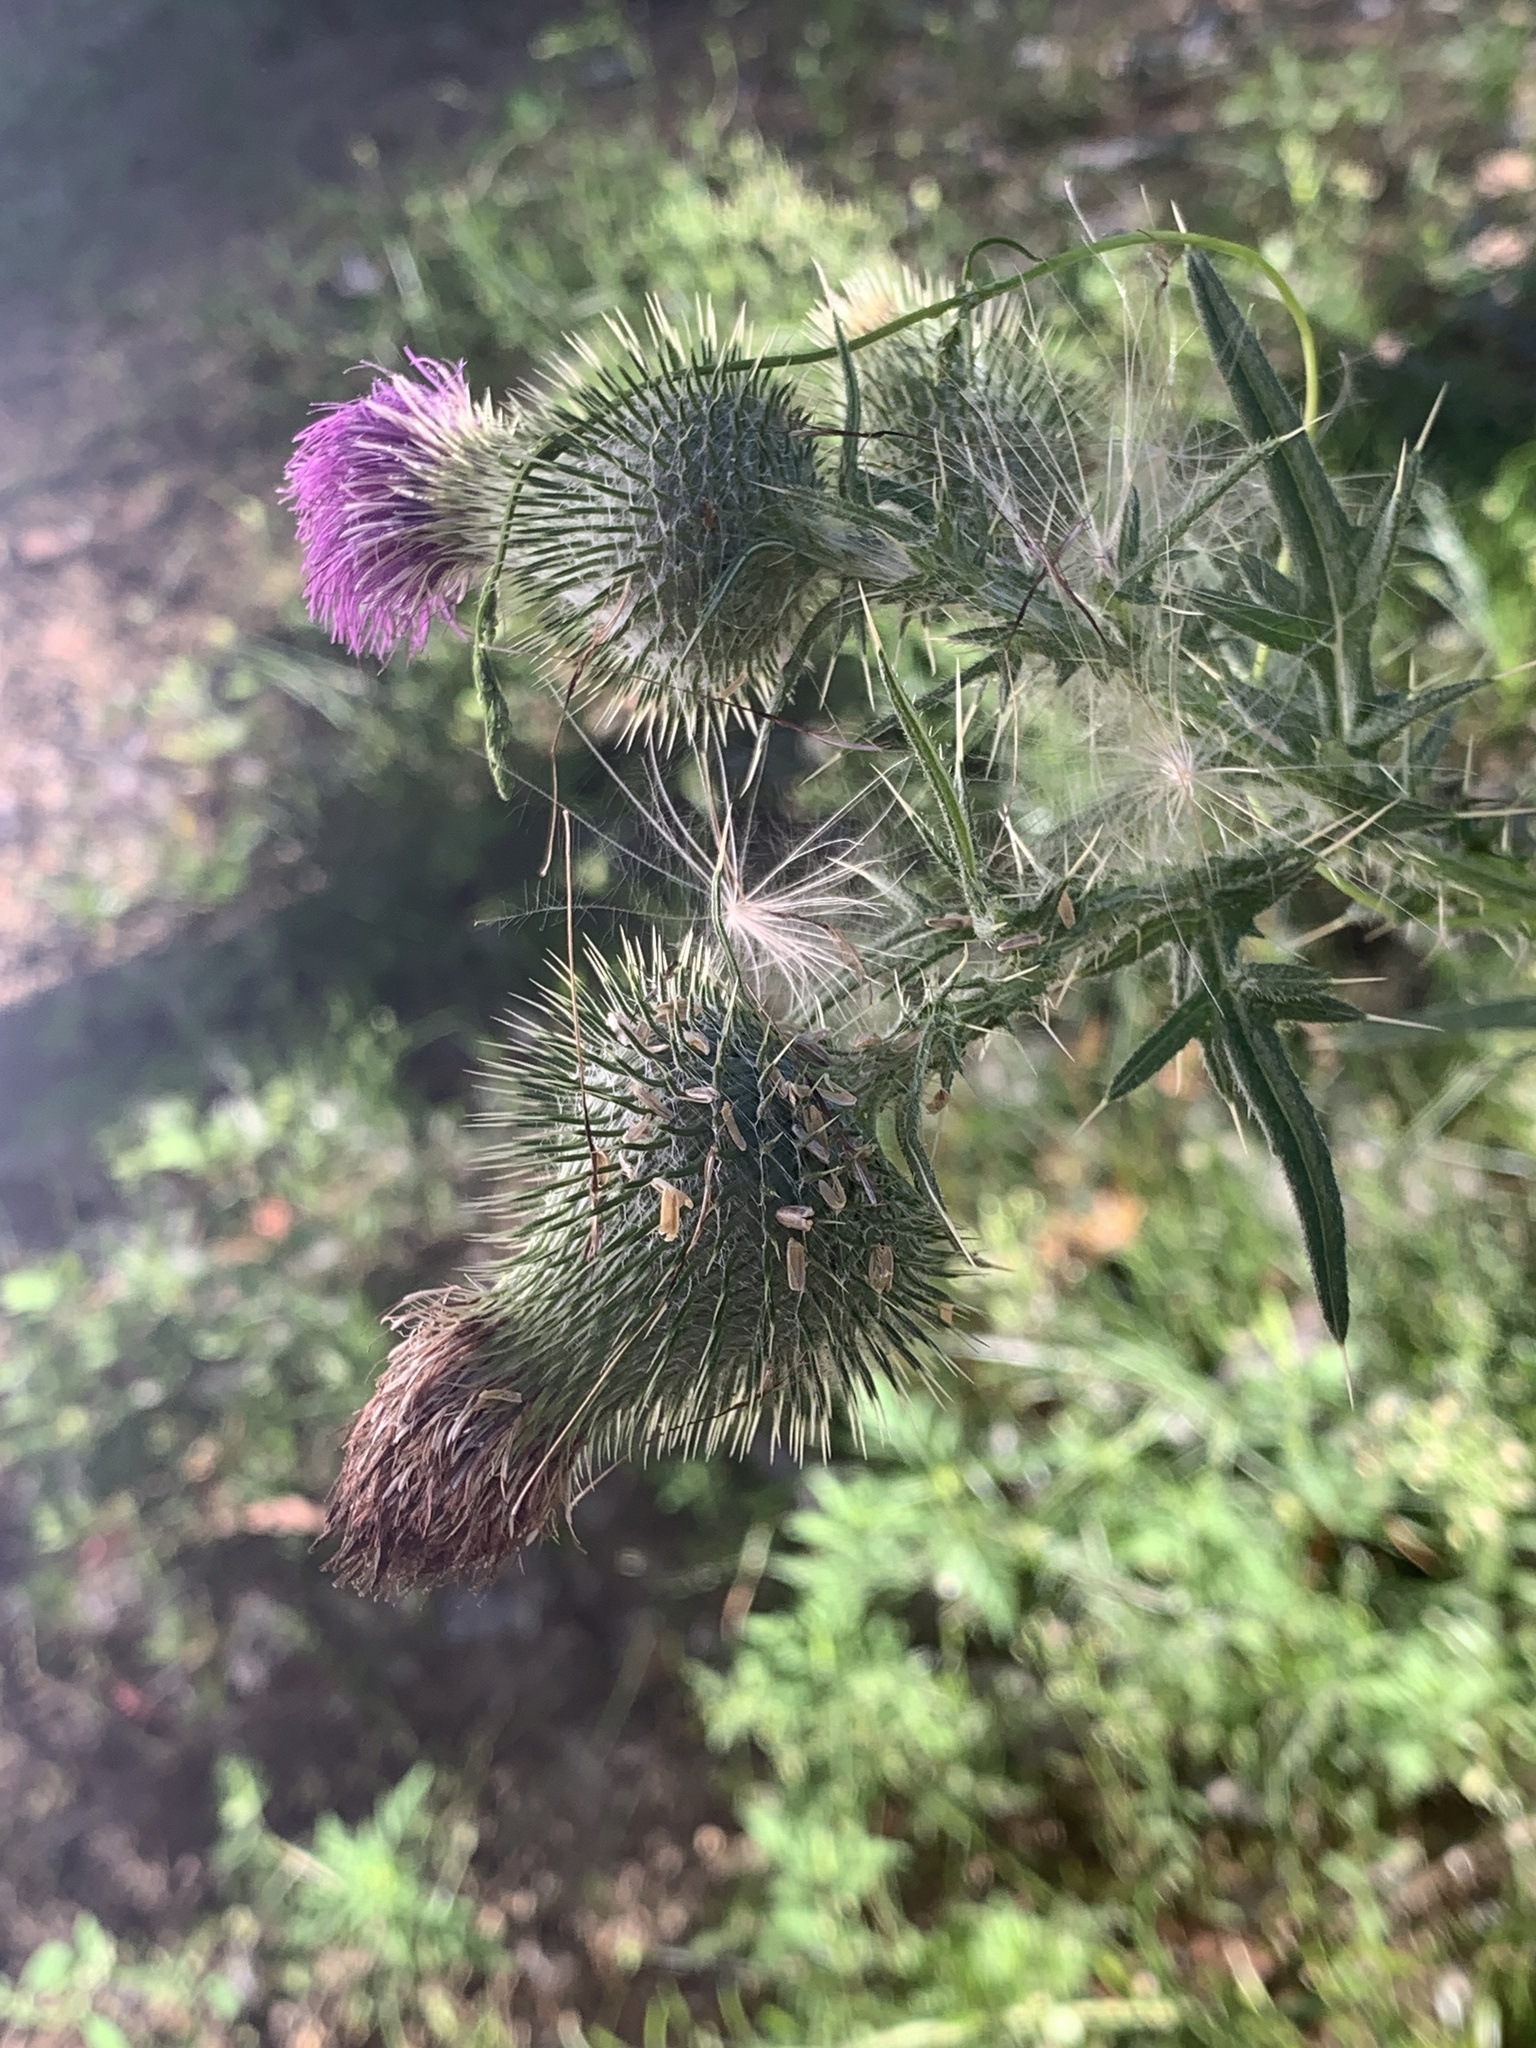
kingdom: Plantae
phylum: Tracheophyta
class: Magnoliopsida
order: Asterales
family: Asteraceae
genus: Cirsium
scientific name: Cirsium vulgare
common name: Bull thistle
